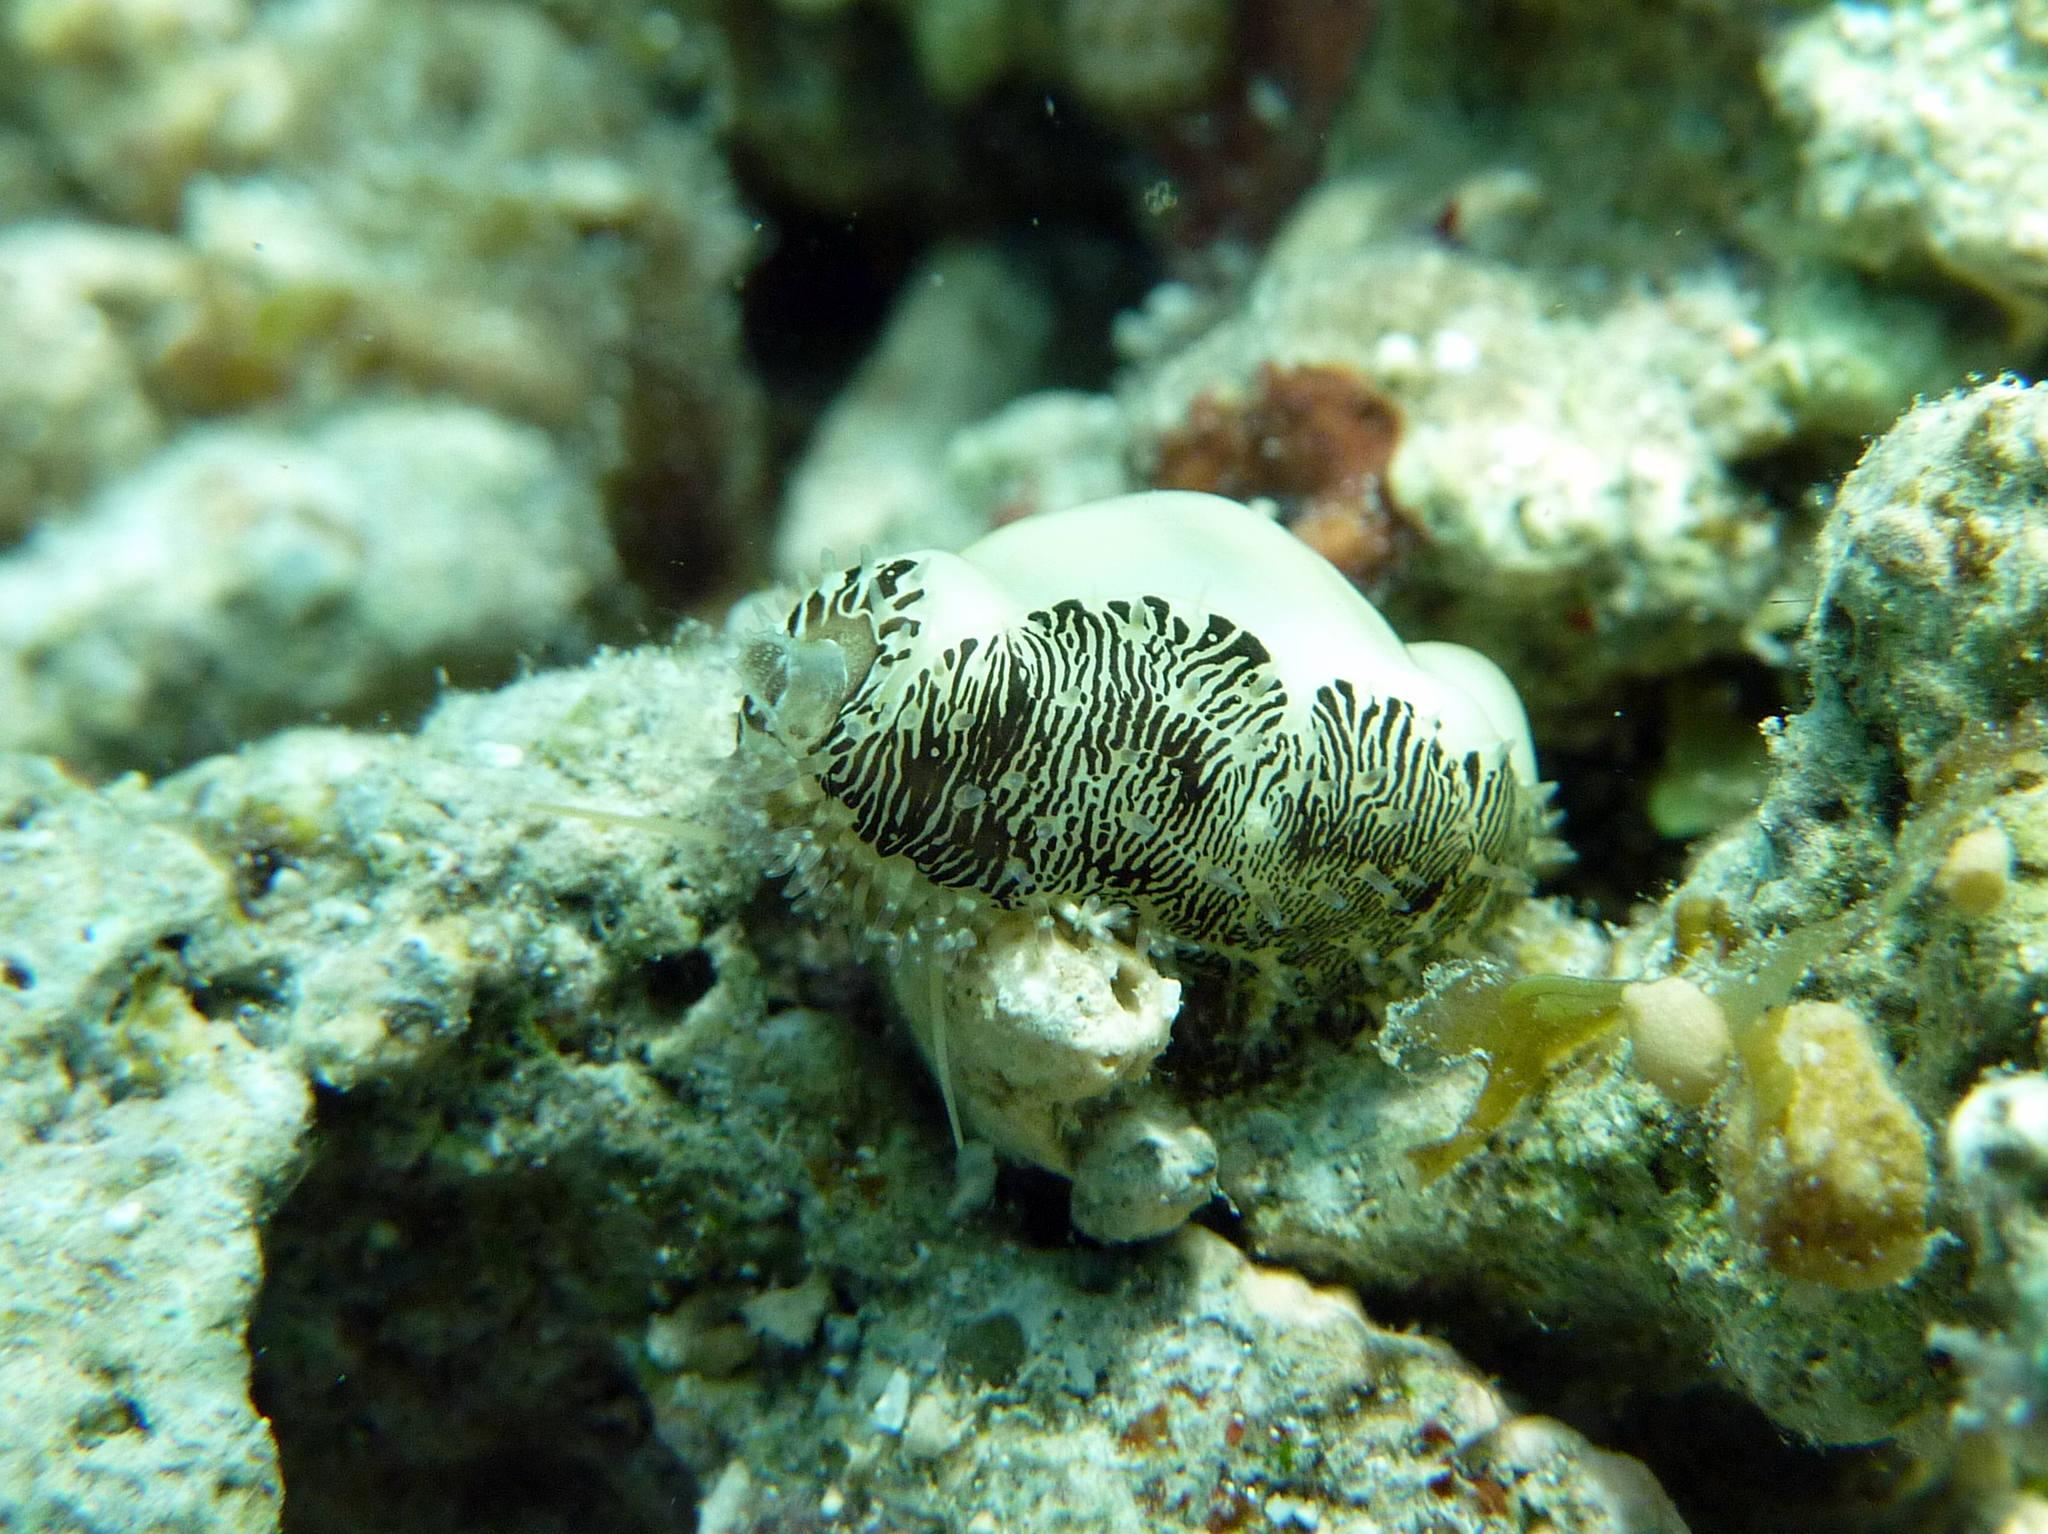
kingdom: Animalia
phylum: Mollusca
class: Gastropoda
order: Littorinimorpha
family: Cypraeidae
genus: Monetaria
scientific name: Monetaria annulus
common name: Ring cowrie
